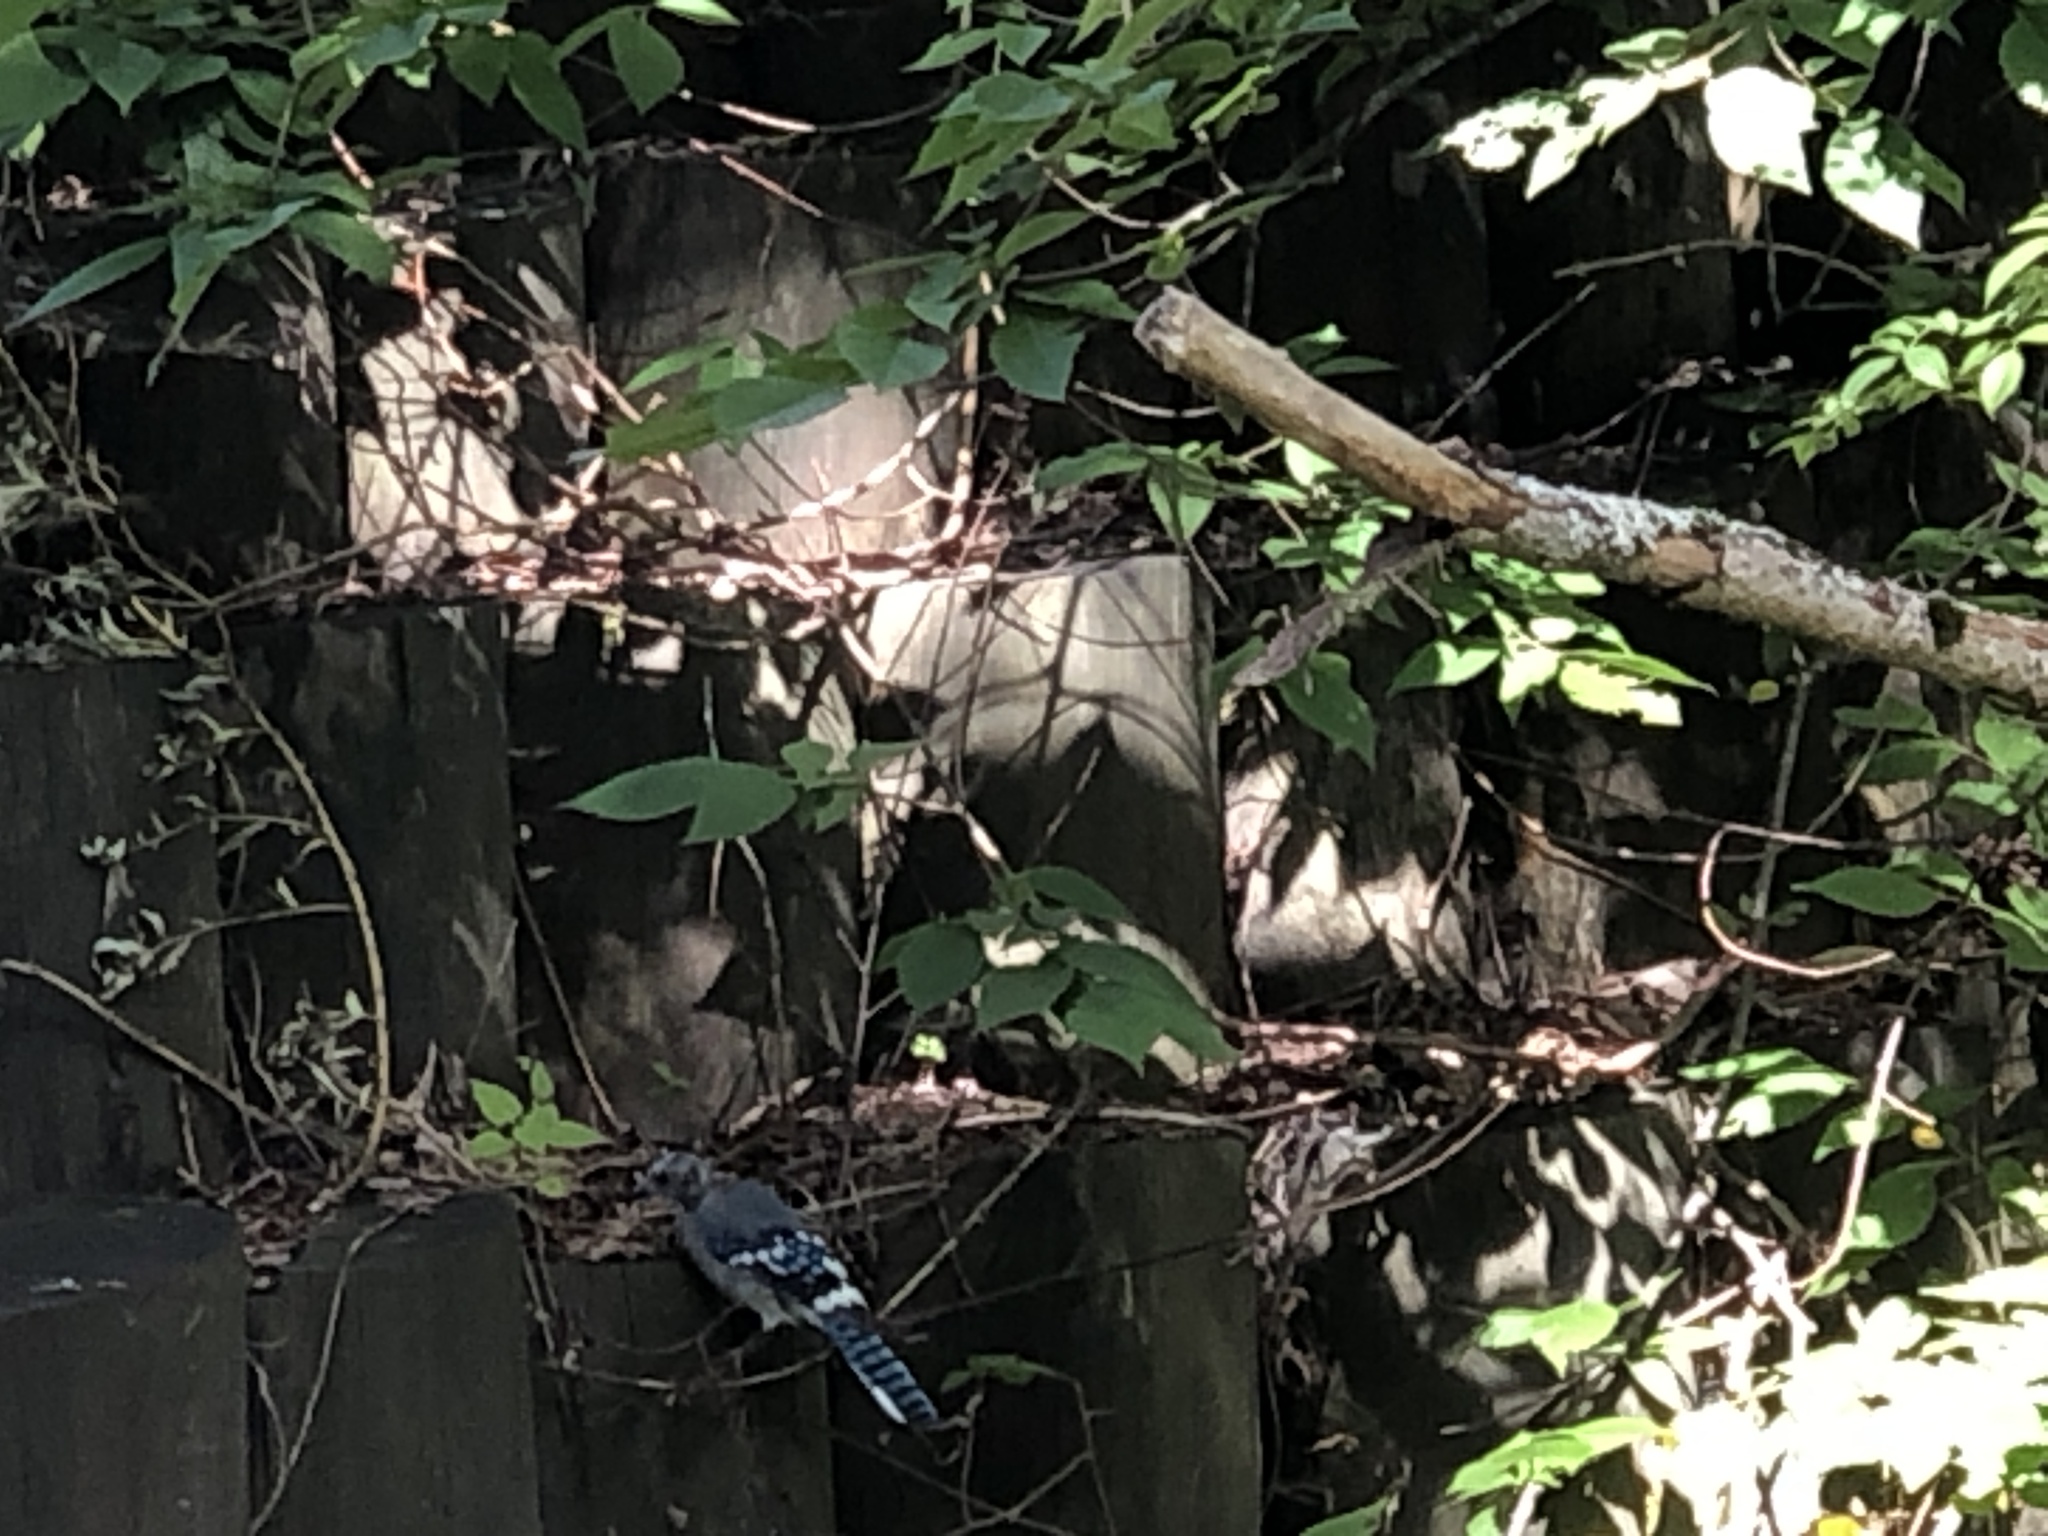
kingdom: Animalia
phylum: Chordata
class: Aves
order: Passeriformes
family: Corvidae
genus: Cyanocitta
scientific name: Cyanocitta cristata
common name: Blue jay
